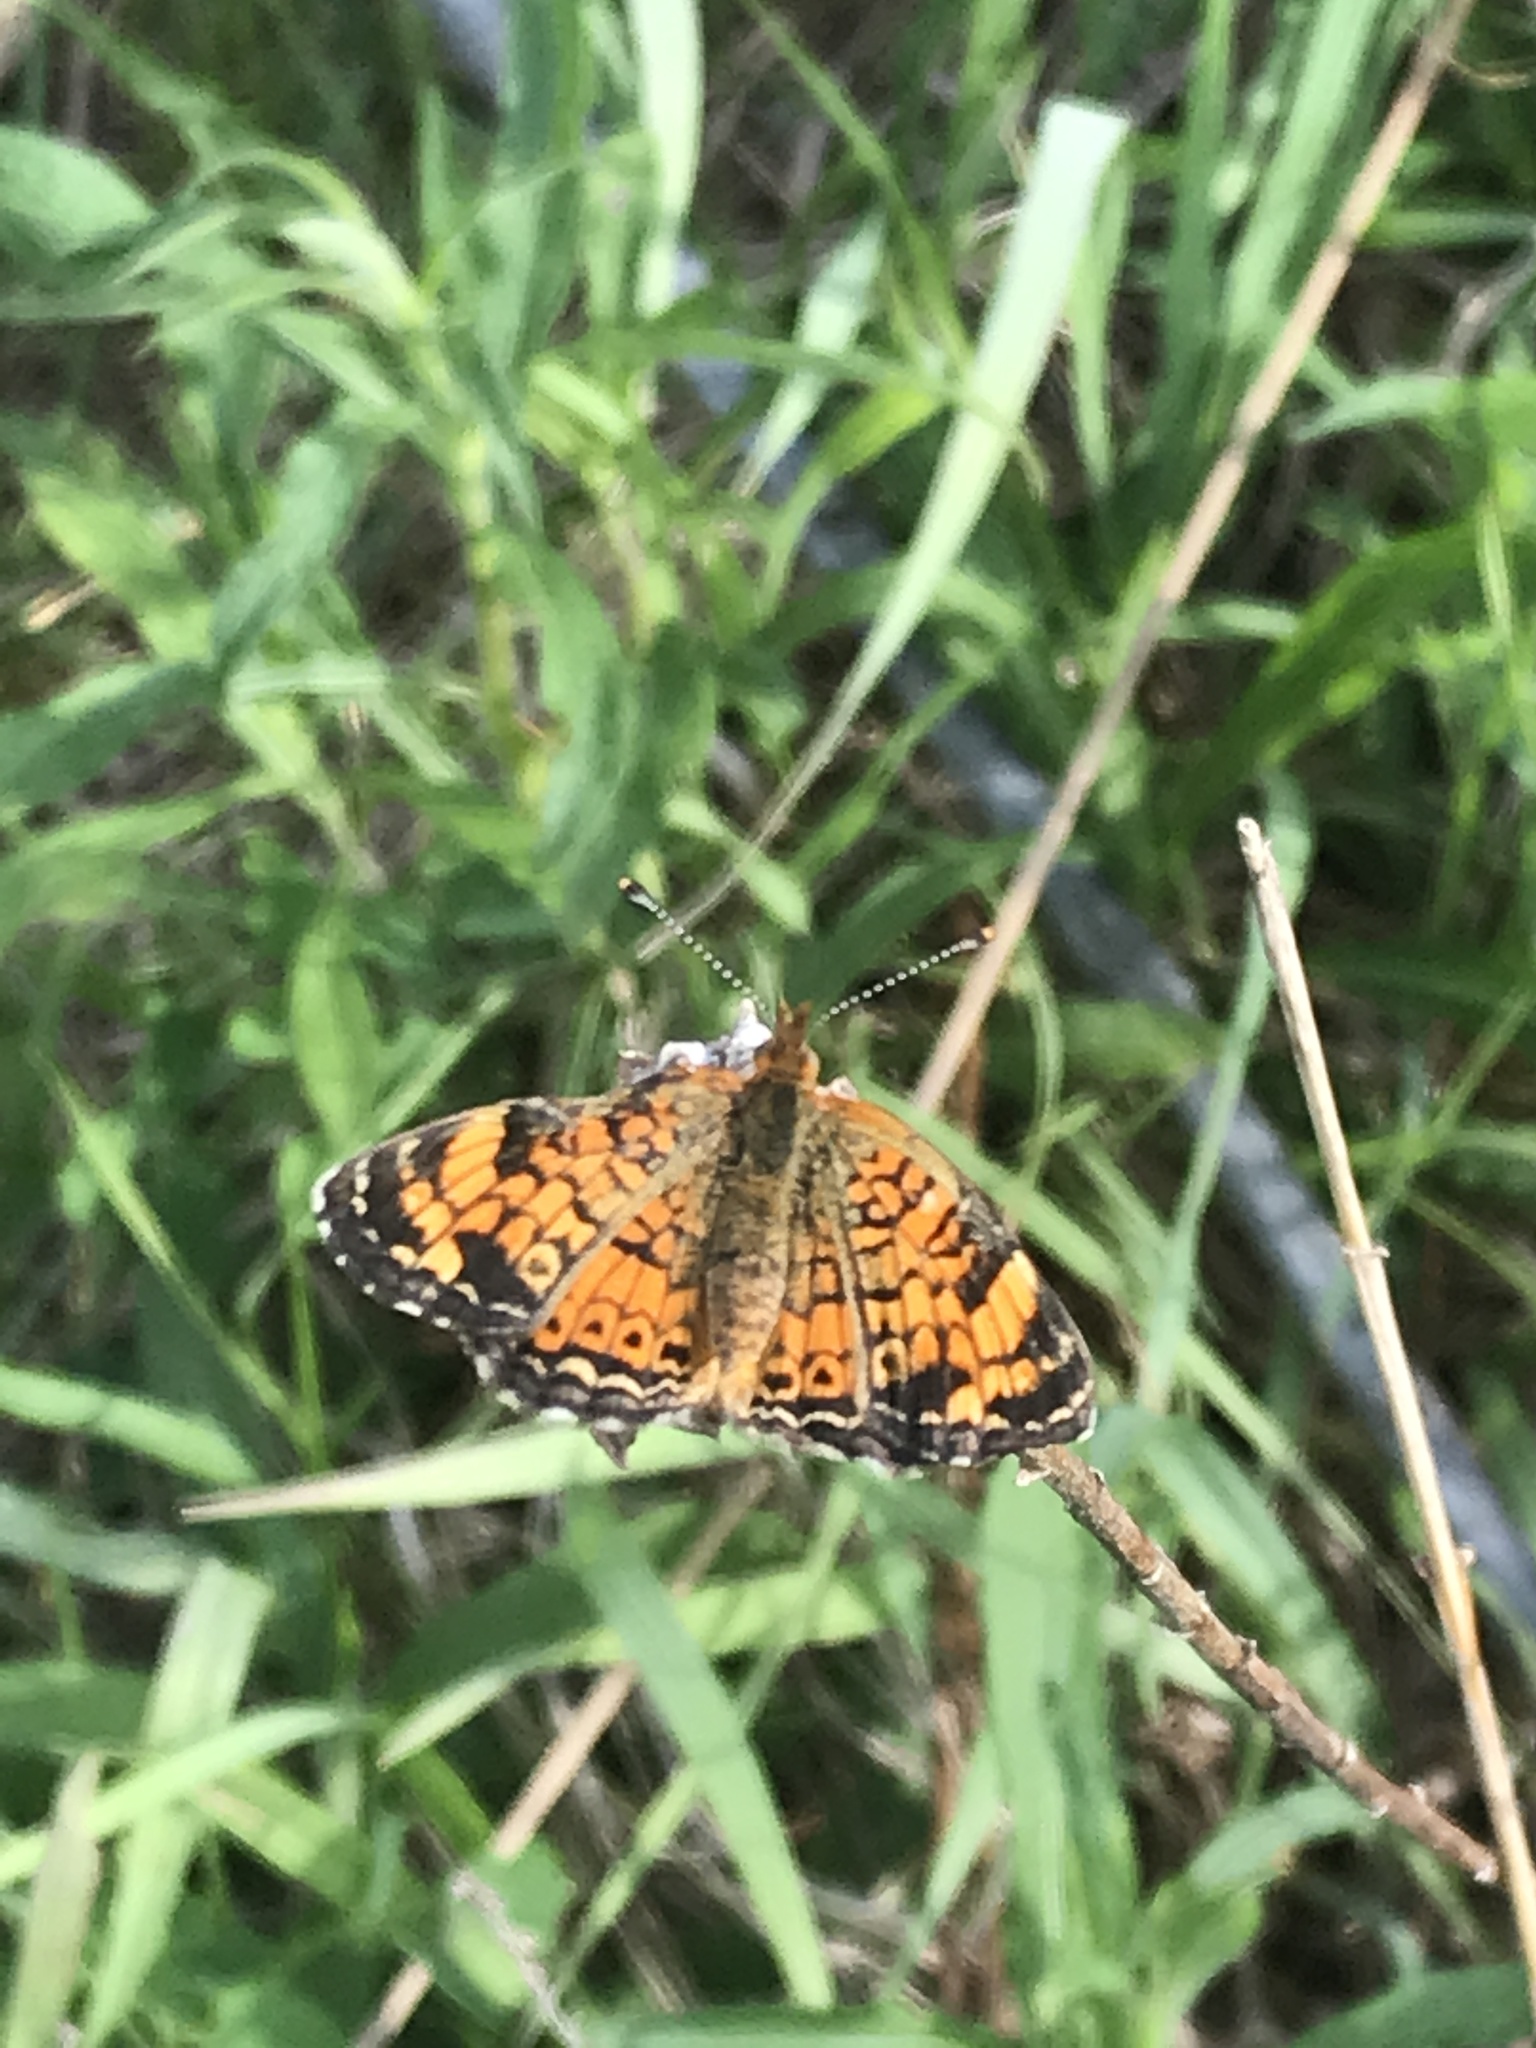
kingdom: Animalia
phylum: Arthropoda
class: Insecta
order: Lepidoptera
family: Nymphalidae
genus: Phyciodes
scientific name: Phyciodes tharos
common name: Pearl crescent
